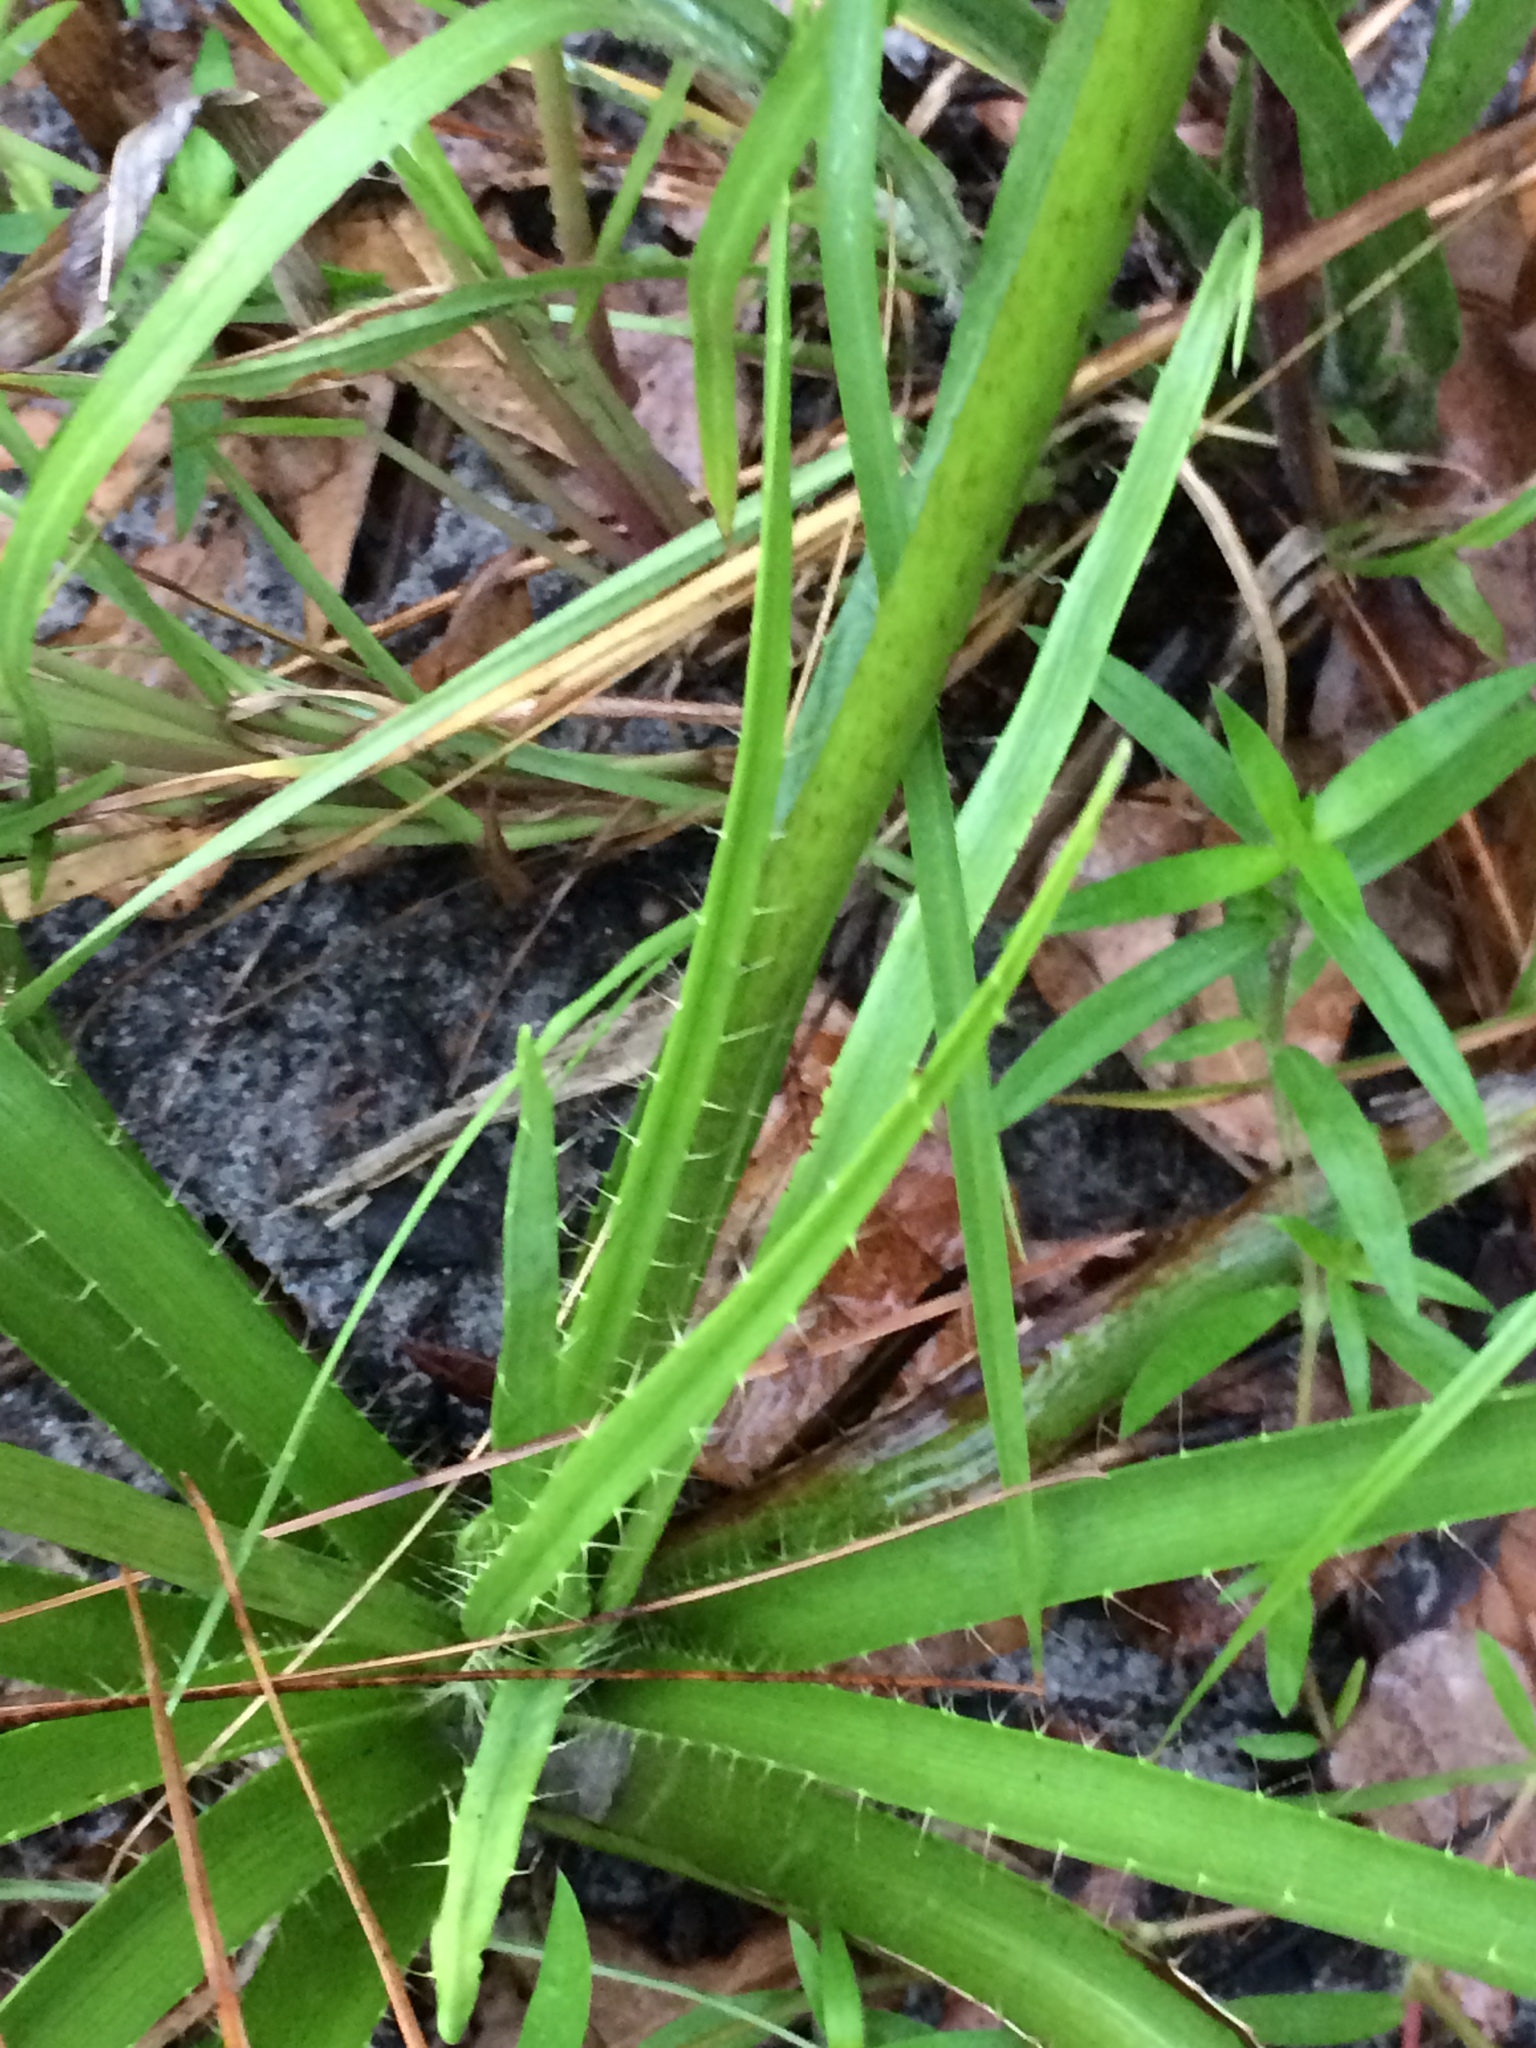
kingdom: Plantae
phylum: Tracheophyta
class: Magnoliopsida
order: Apiales
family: Apiaceae
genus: Eryngium
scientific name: Eryngium yuccifolium
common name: Button eryngo
